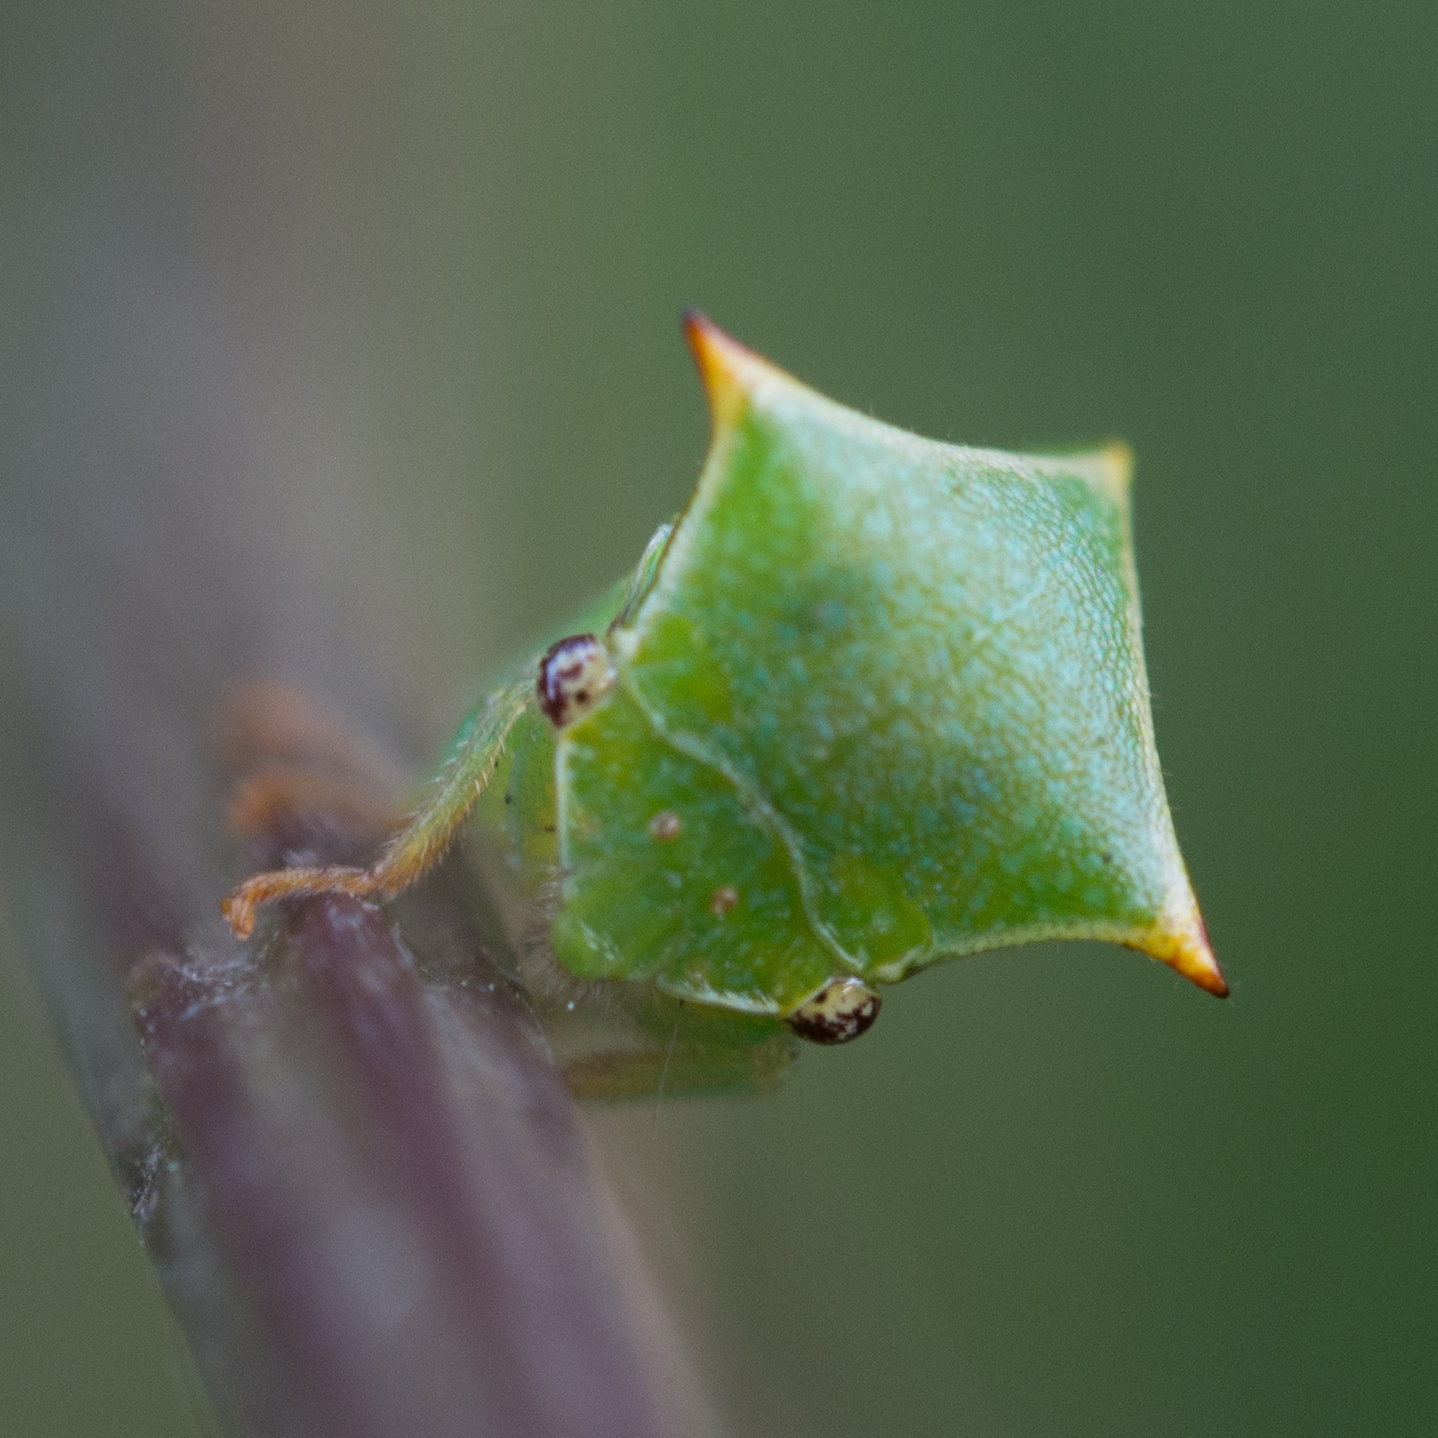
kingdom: Animalia
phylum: Arthropoda
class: Insecta
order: Hemiptera
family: Membracidae
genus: Stictocephala
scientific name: Stictocephala bisonia
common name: American buffalo treehopper
